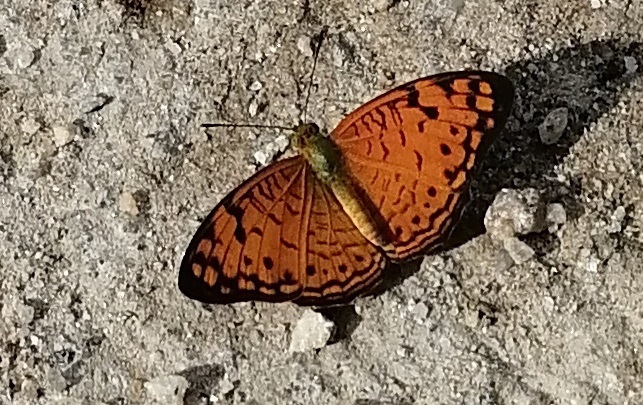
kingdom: Animalia
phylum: Arthropoda
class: Insecta
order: Lepidoptera
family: Nymphalidae
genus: Phalanta
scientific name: Phalanta alcippe
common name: Small leopard
